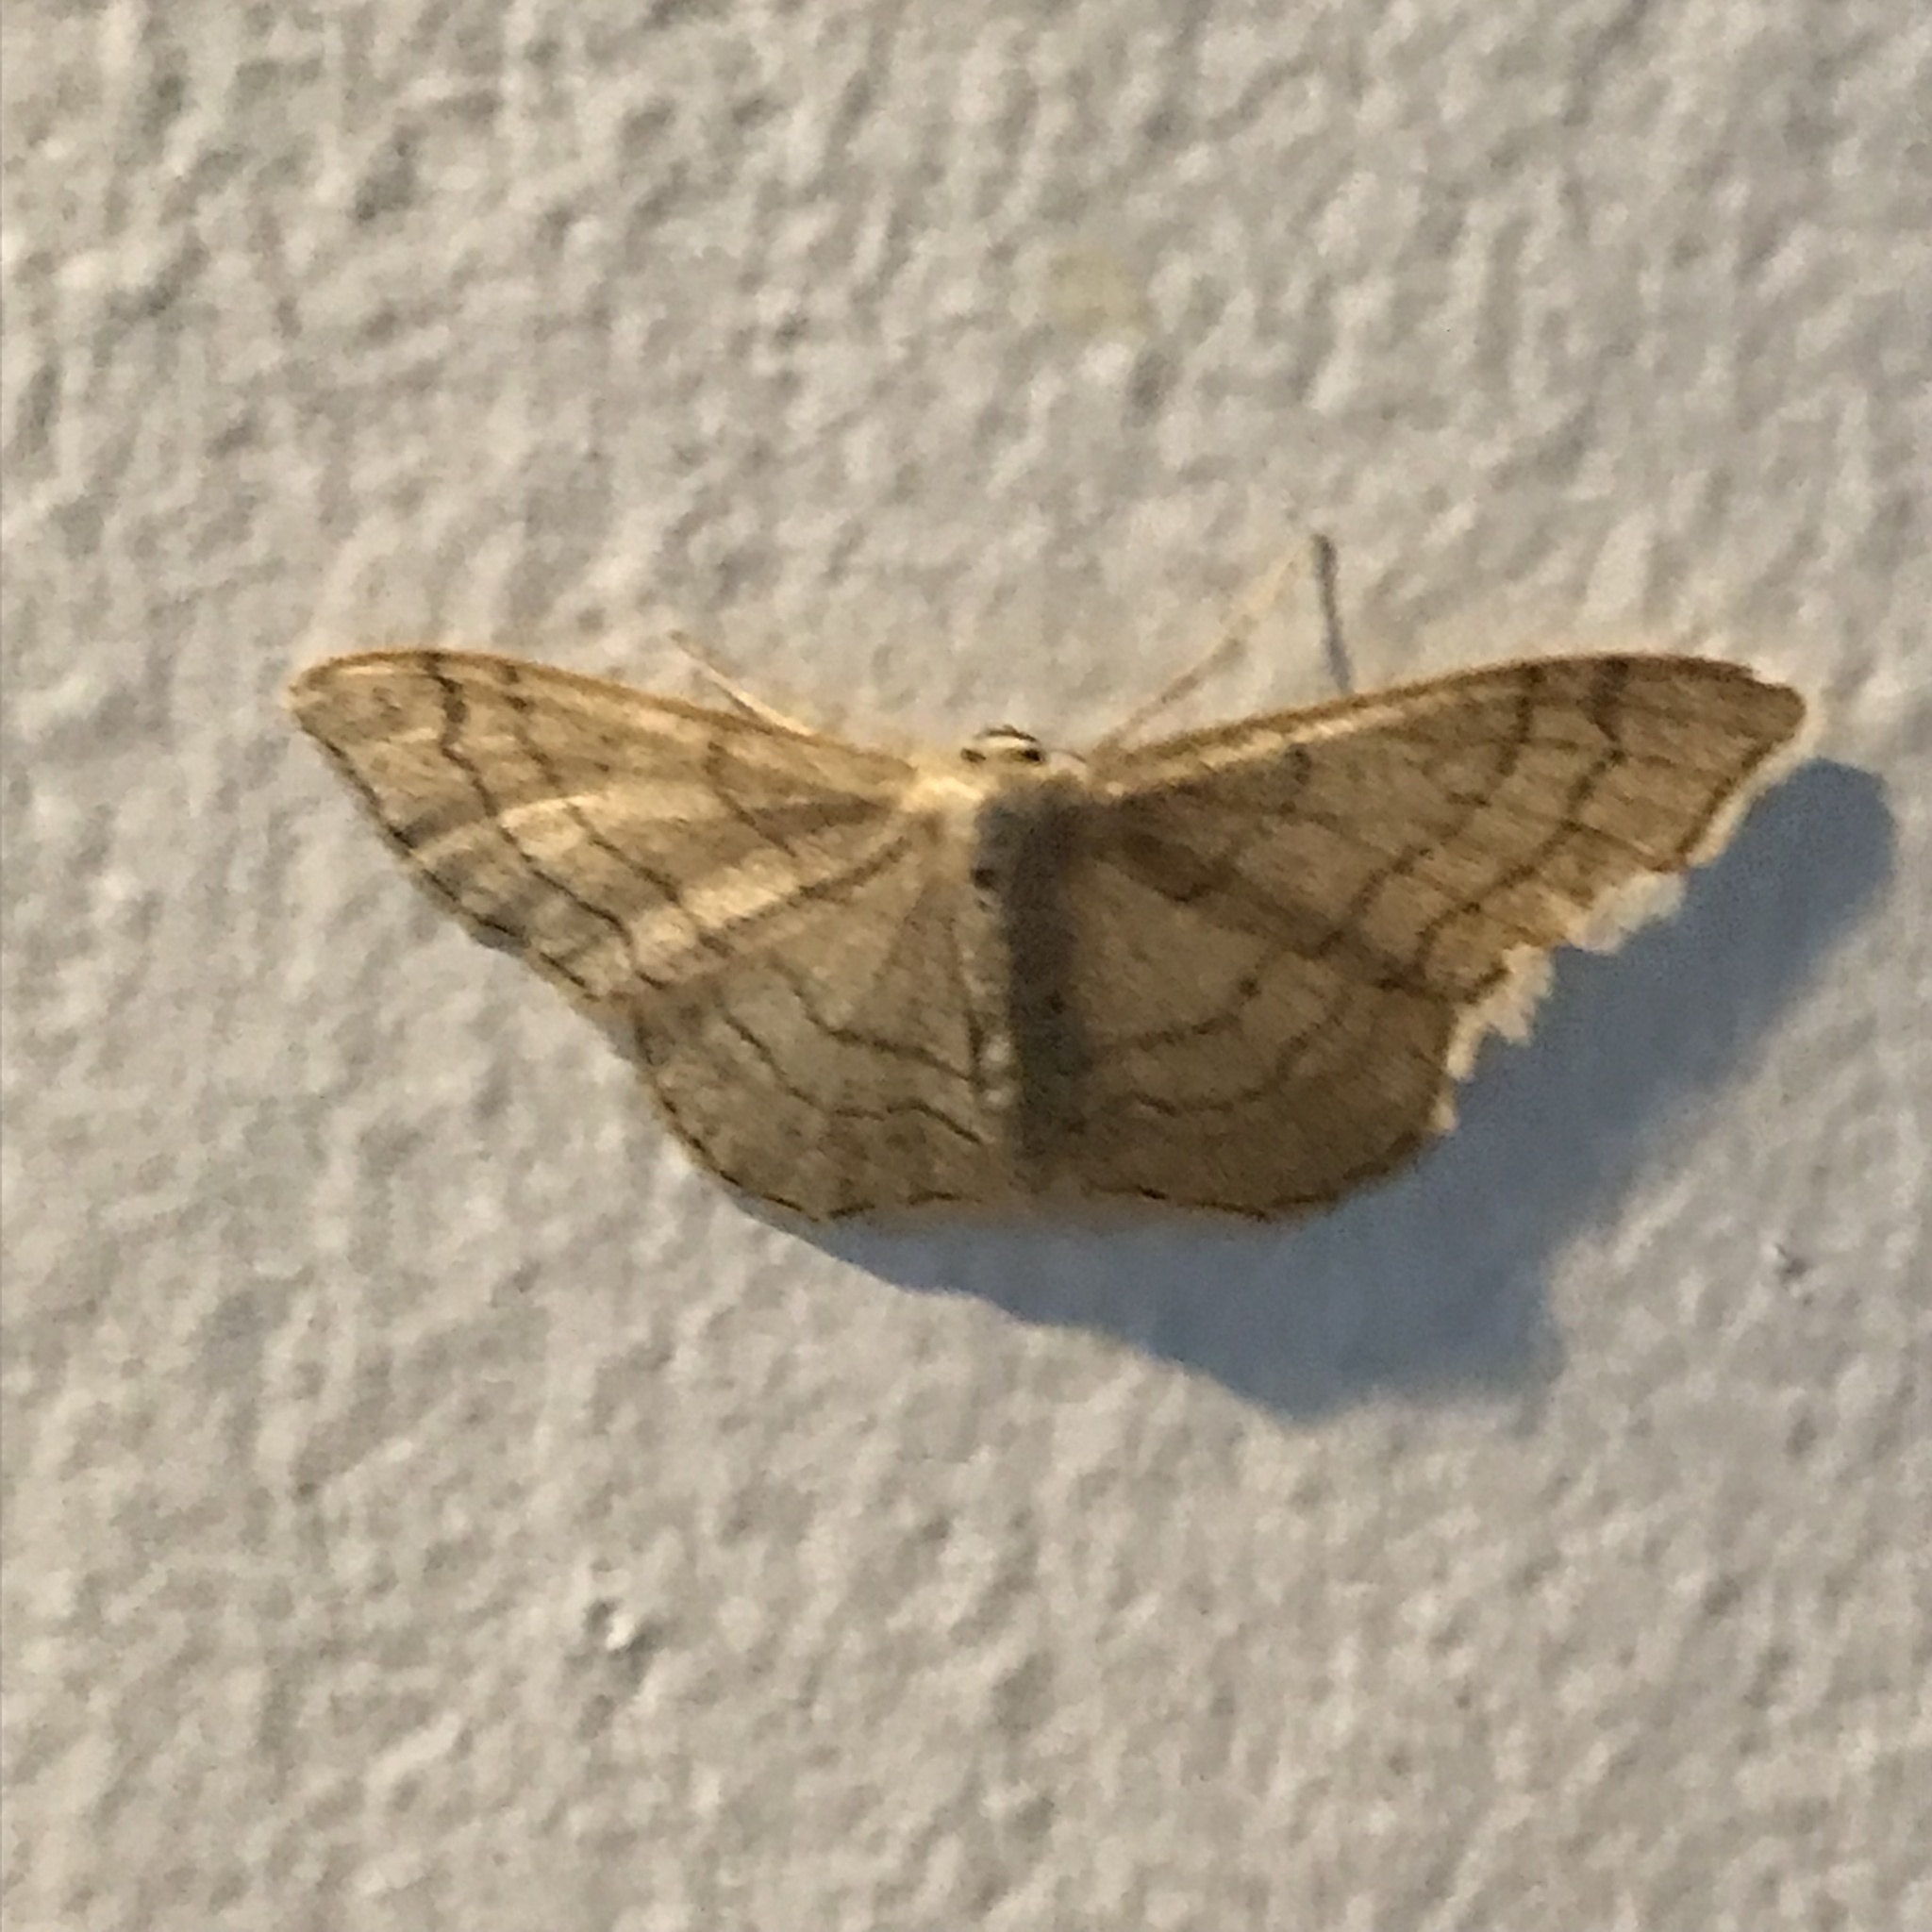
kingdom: Animalia
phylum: Arthropoda
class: Insecta
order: Lepidoptera
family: Geometridae
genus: Idaea
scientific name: Idaea aversata
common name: Riband wave
